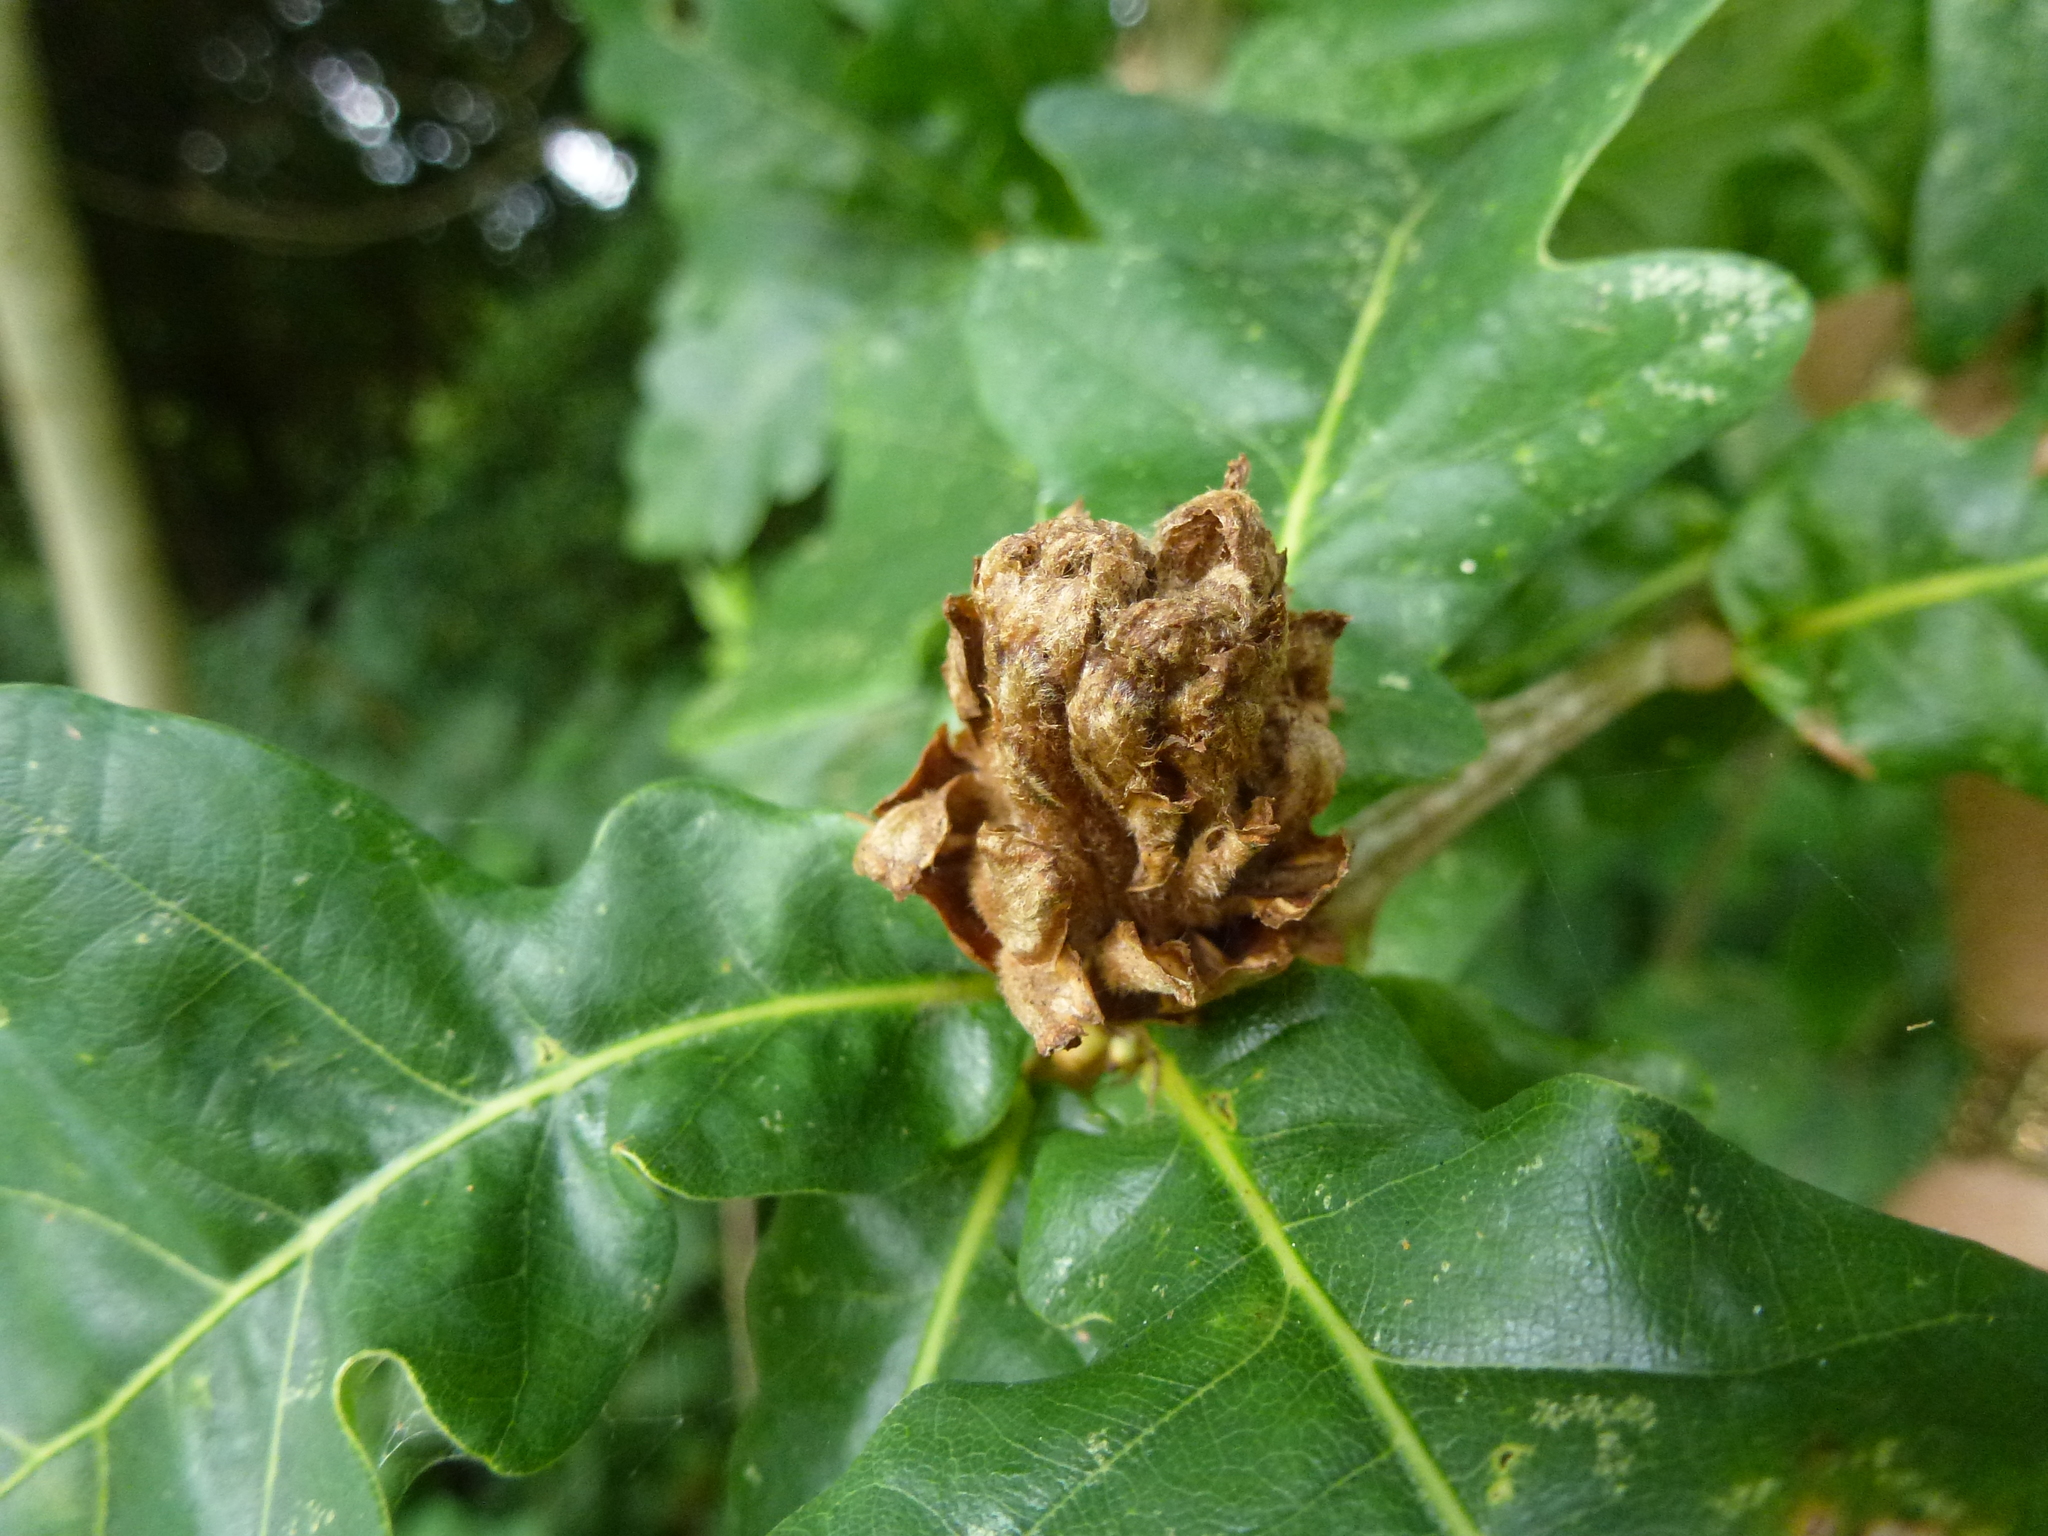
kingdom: Animalia
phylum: Arthropoda
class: Insecta
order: Hymenoptera
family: Cynipidae
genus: Andricus
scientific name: Andricus foecundatrix
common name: Artichoke gall
